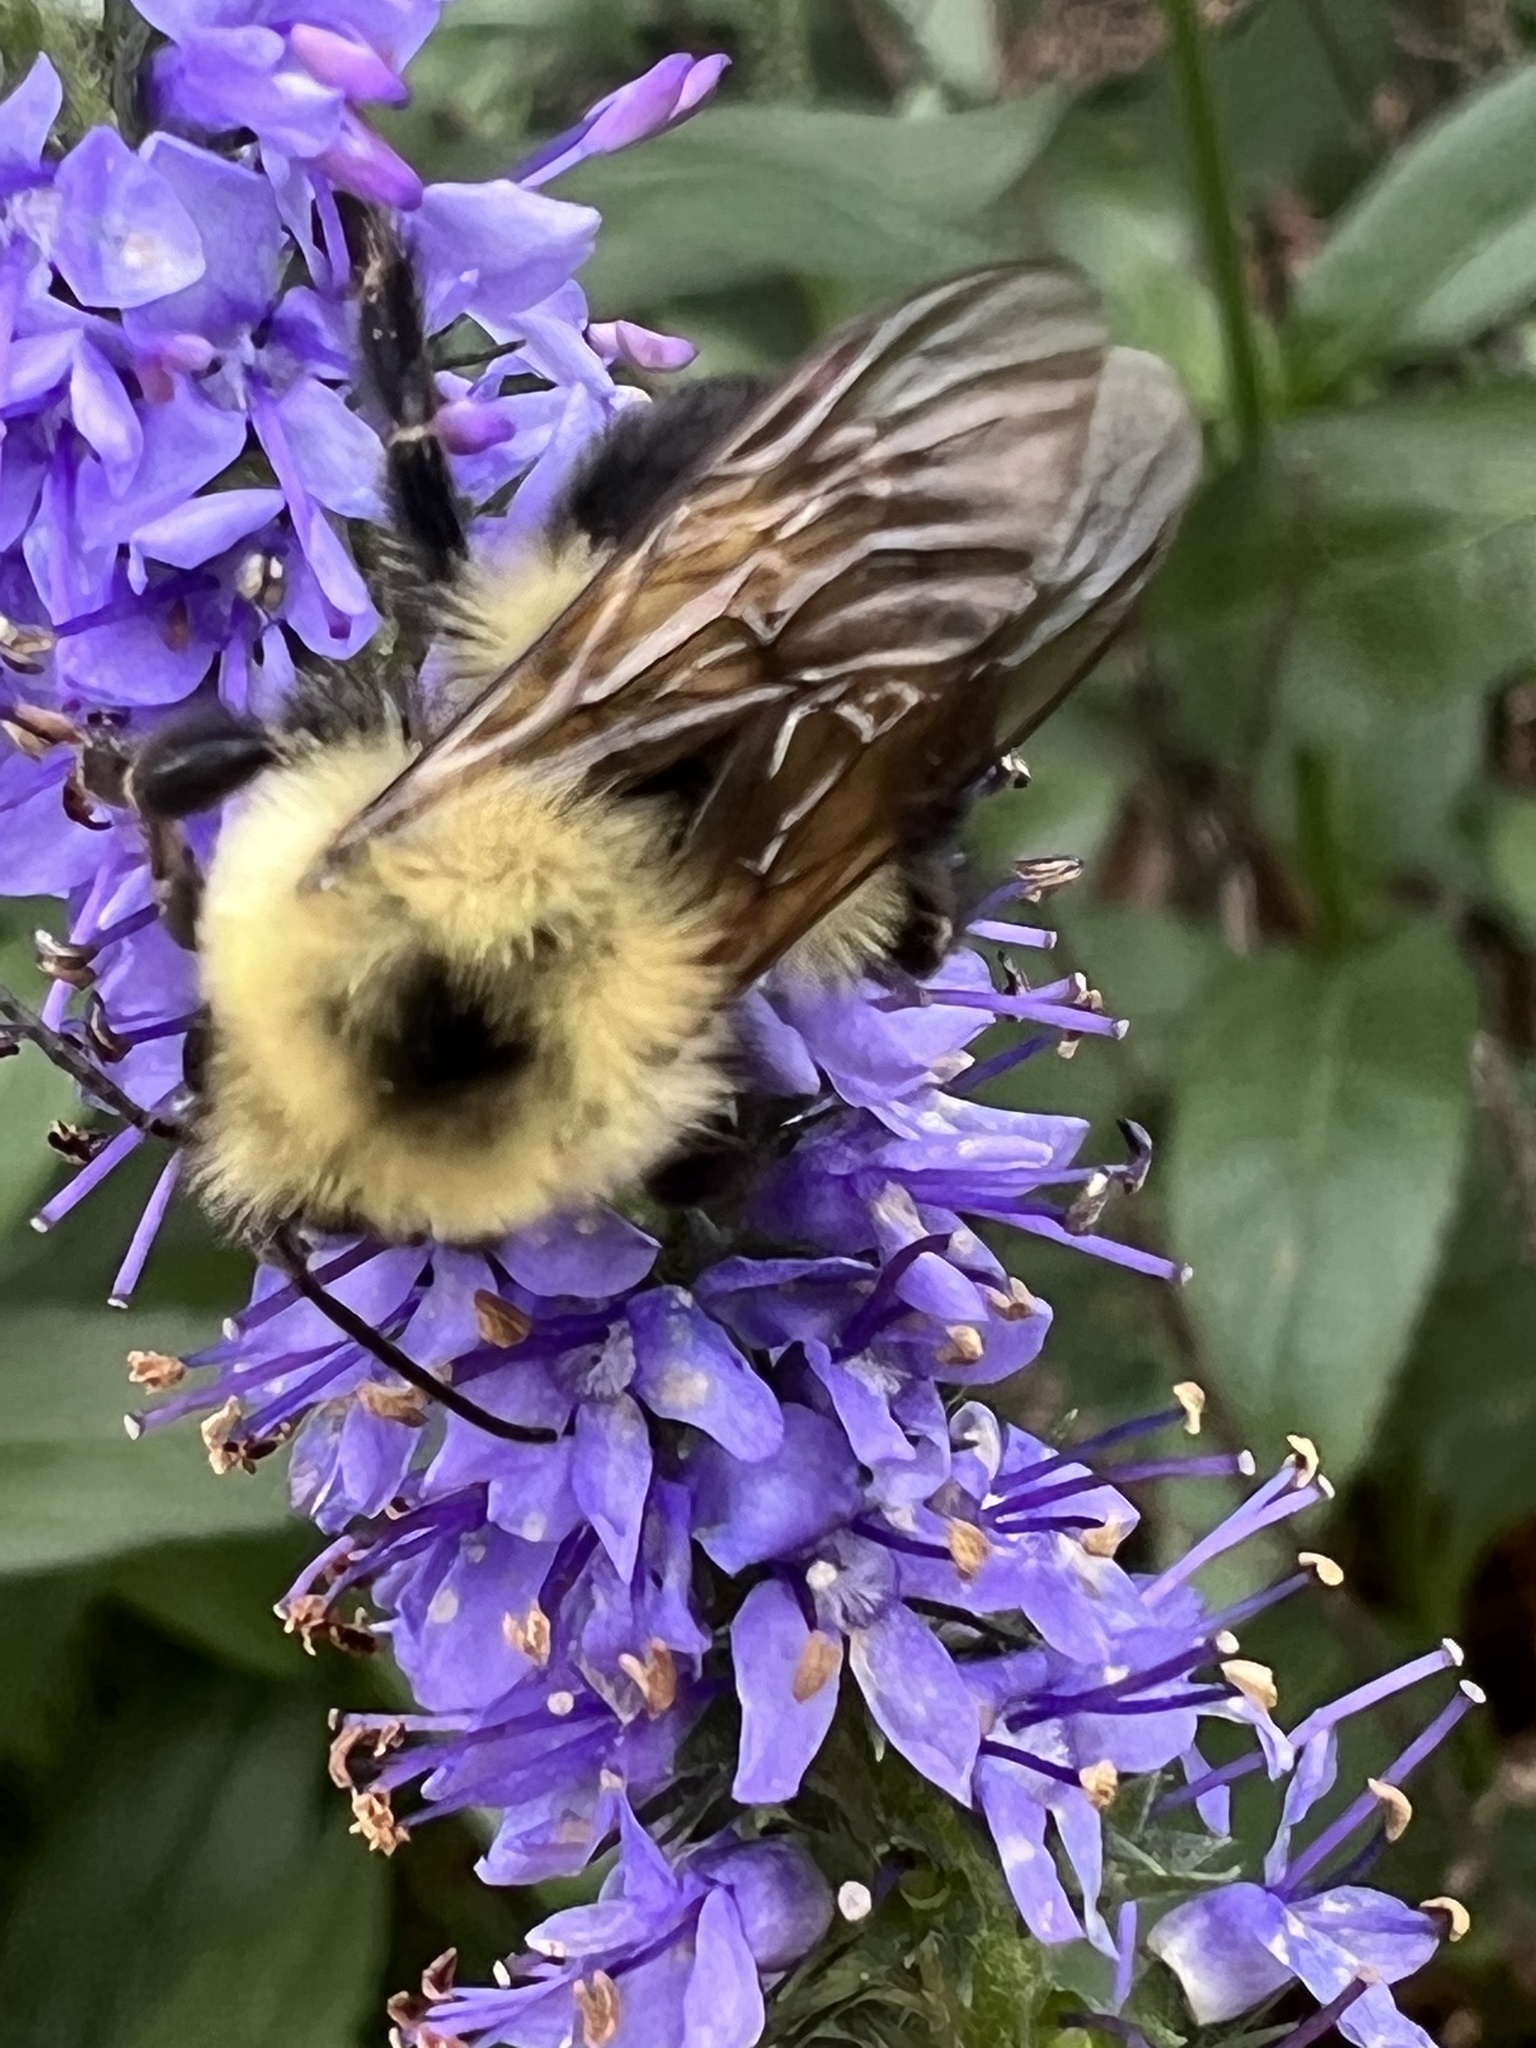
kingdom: Animalia
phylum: Arthropoda
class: Insecta
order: Hymenoptera
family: Apidae
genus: Bombus
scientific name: Bombus bimaculatus
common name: Two-spotted bumble bee
